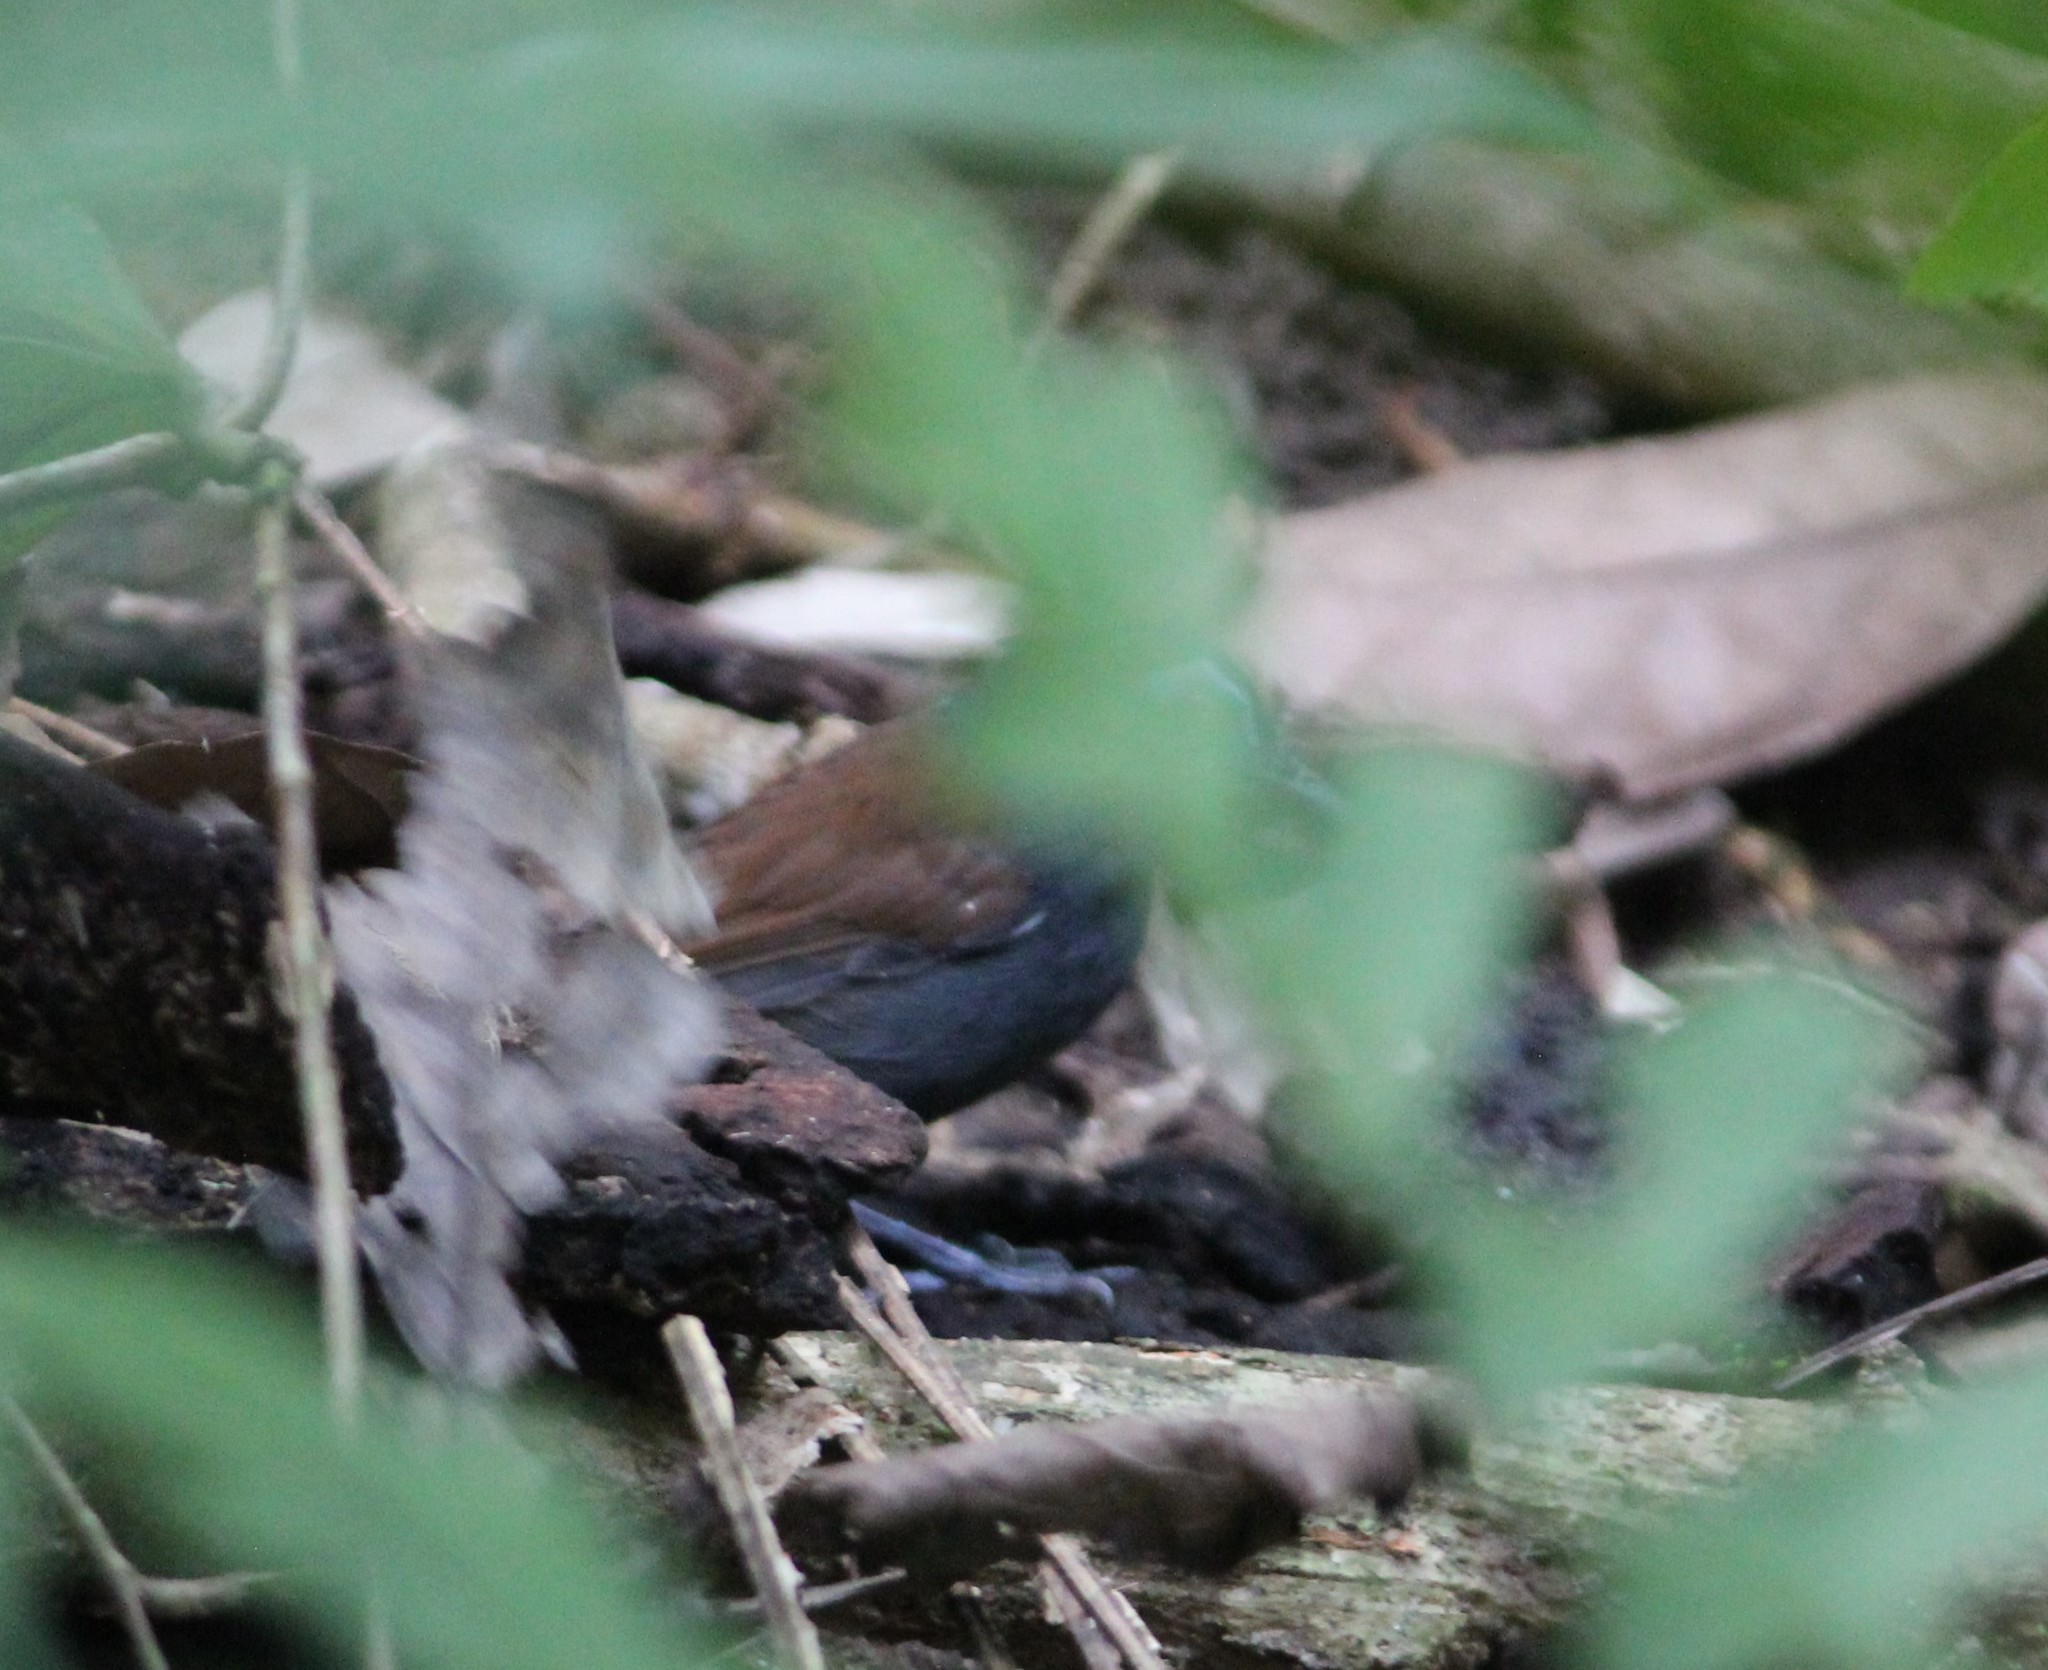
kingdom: Animalia
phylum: Chordata
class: Aves
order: Passeriformes
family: Thamnophilidae
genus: Myrmeciza
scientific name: Myrmeciza exsul
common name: Chestnut-backed antbird
